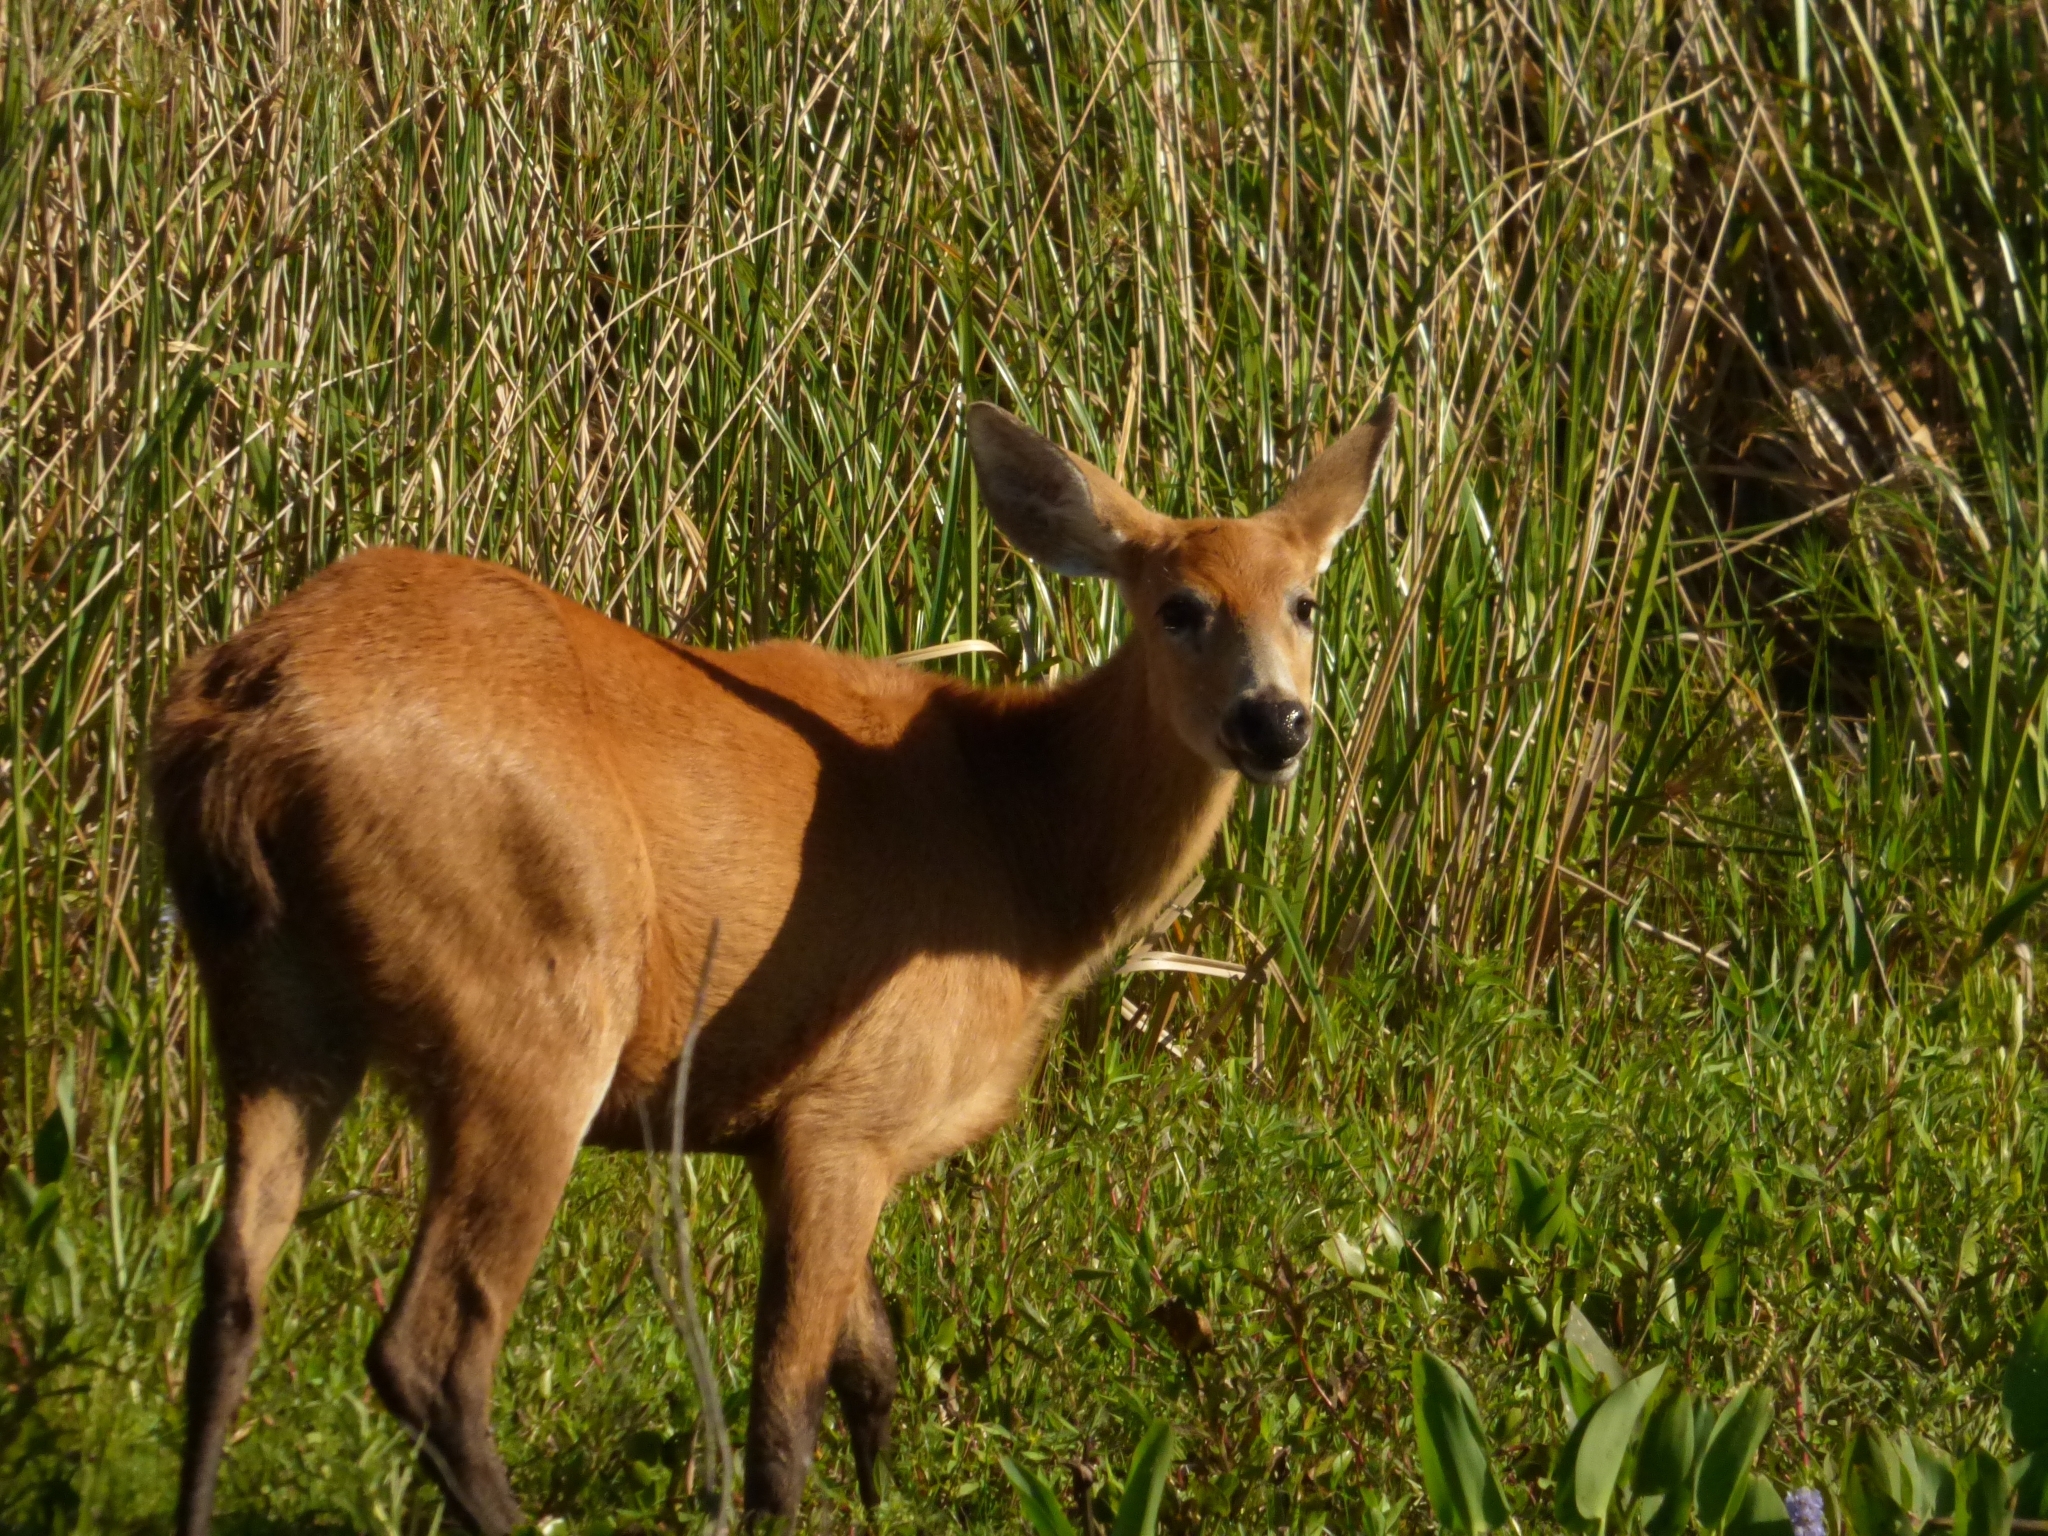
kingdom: Animalia
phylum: Chordata
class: Mammalia
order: Artiodactyla
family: Cervidae
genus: Blastocerus
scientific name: Blastocerus dichotomus
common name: Marsh deer
